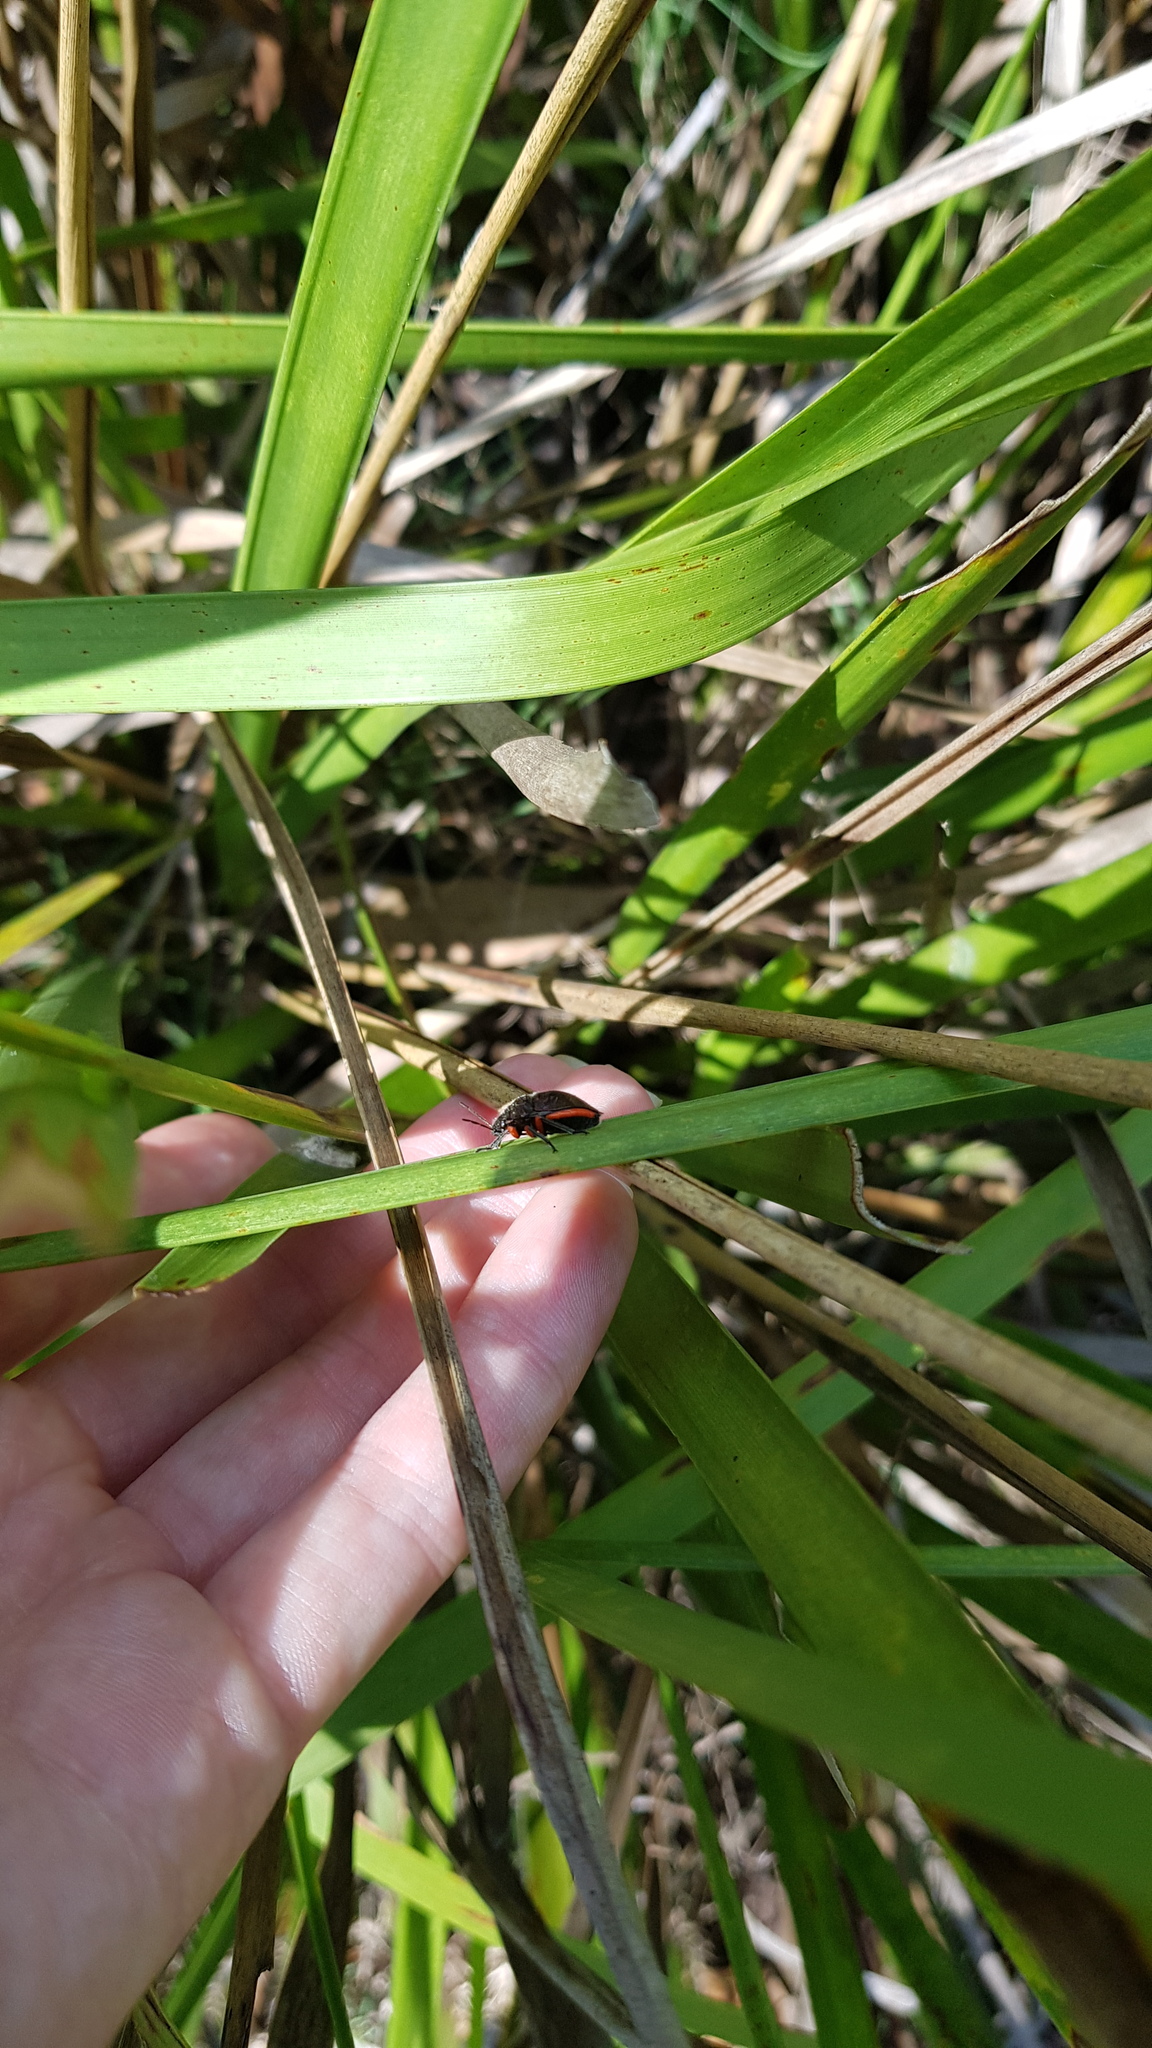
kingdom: Animalia
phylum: Arthropoda
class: Insecta
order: Hemiptera
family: Scutelleridae
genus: Lampromicra
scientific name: Lampromicra
